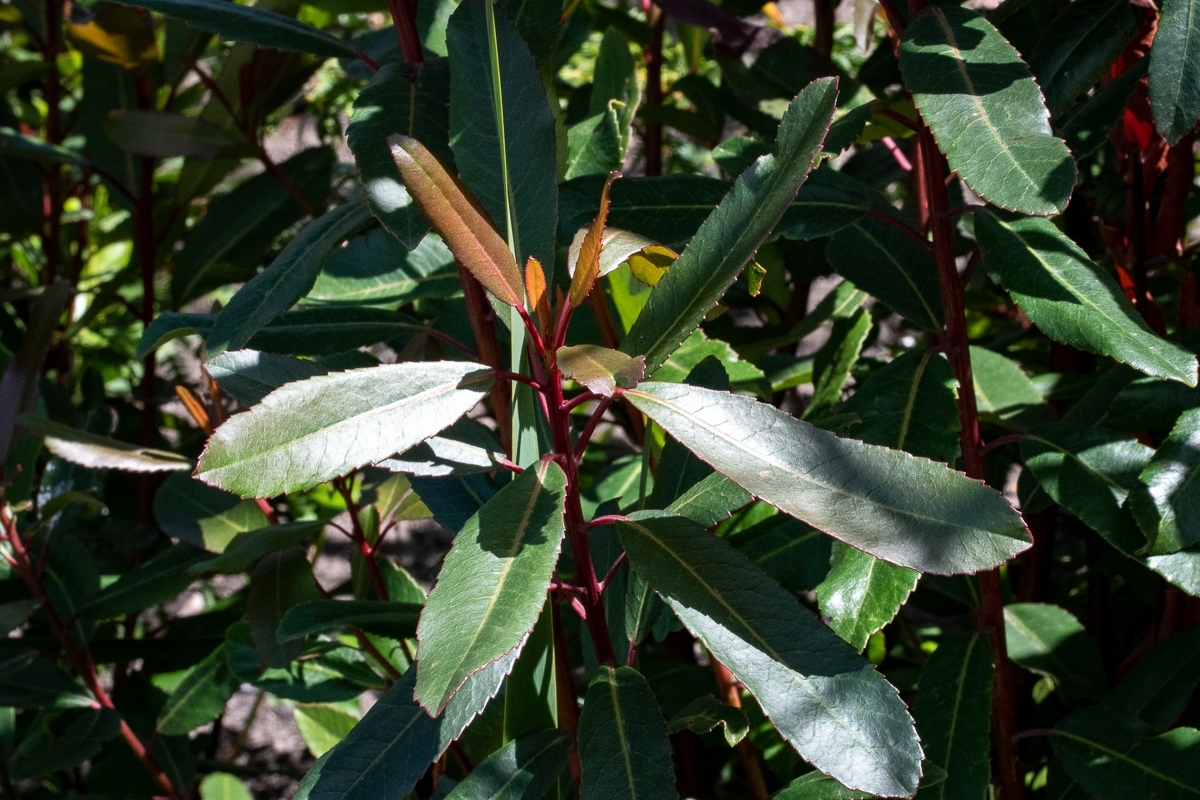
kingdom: Plantae
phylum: Tracheophyta
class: Magnoliopsida
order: Sapindales
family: Anacardiaceae
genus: Laurophyllus
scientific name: Laurophyllus capensis
